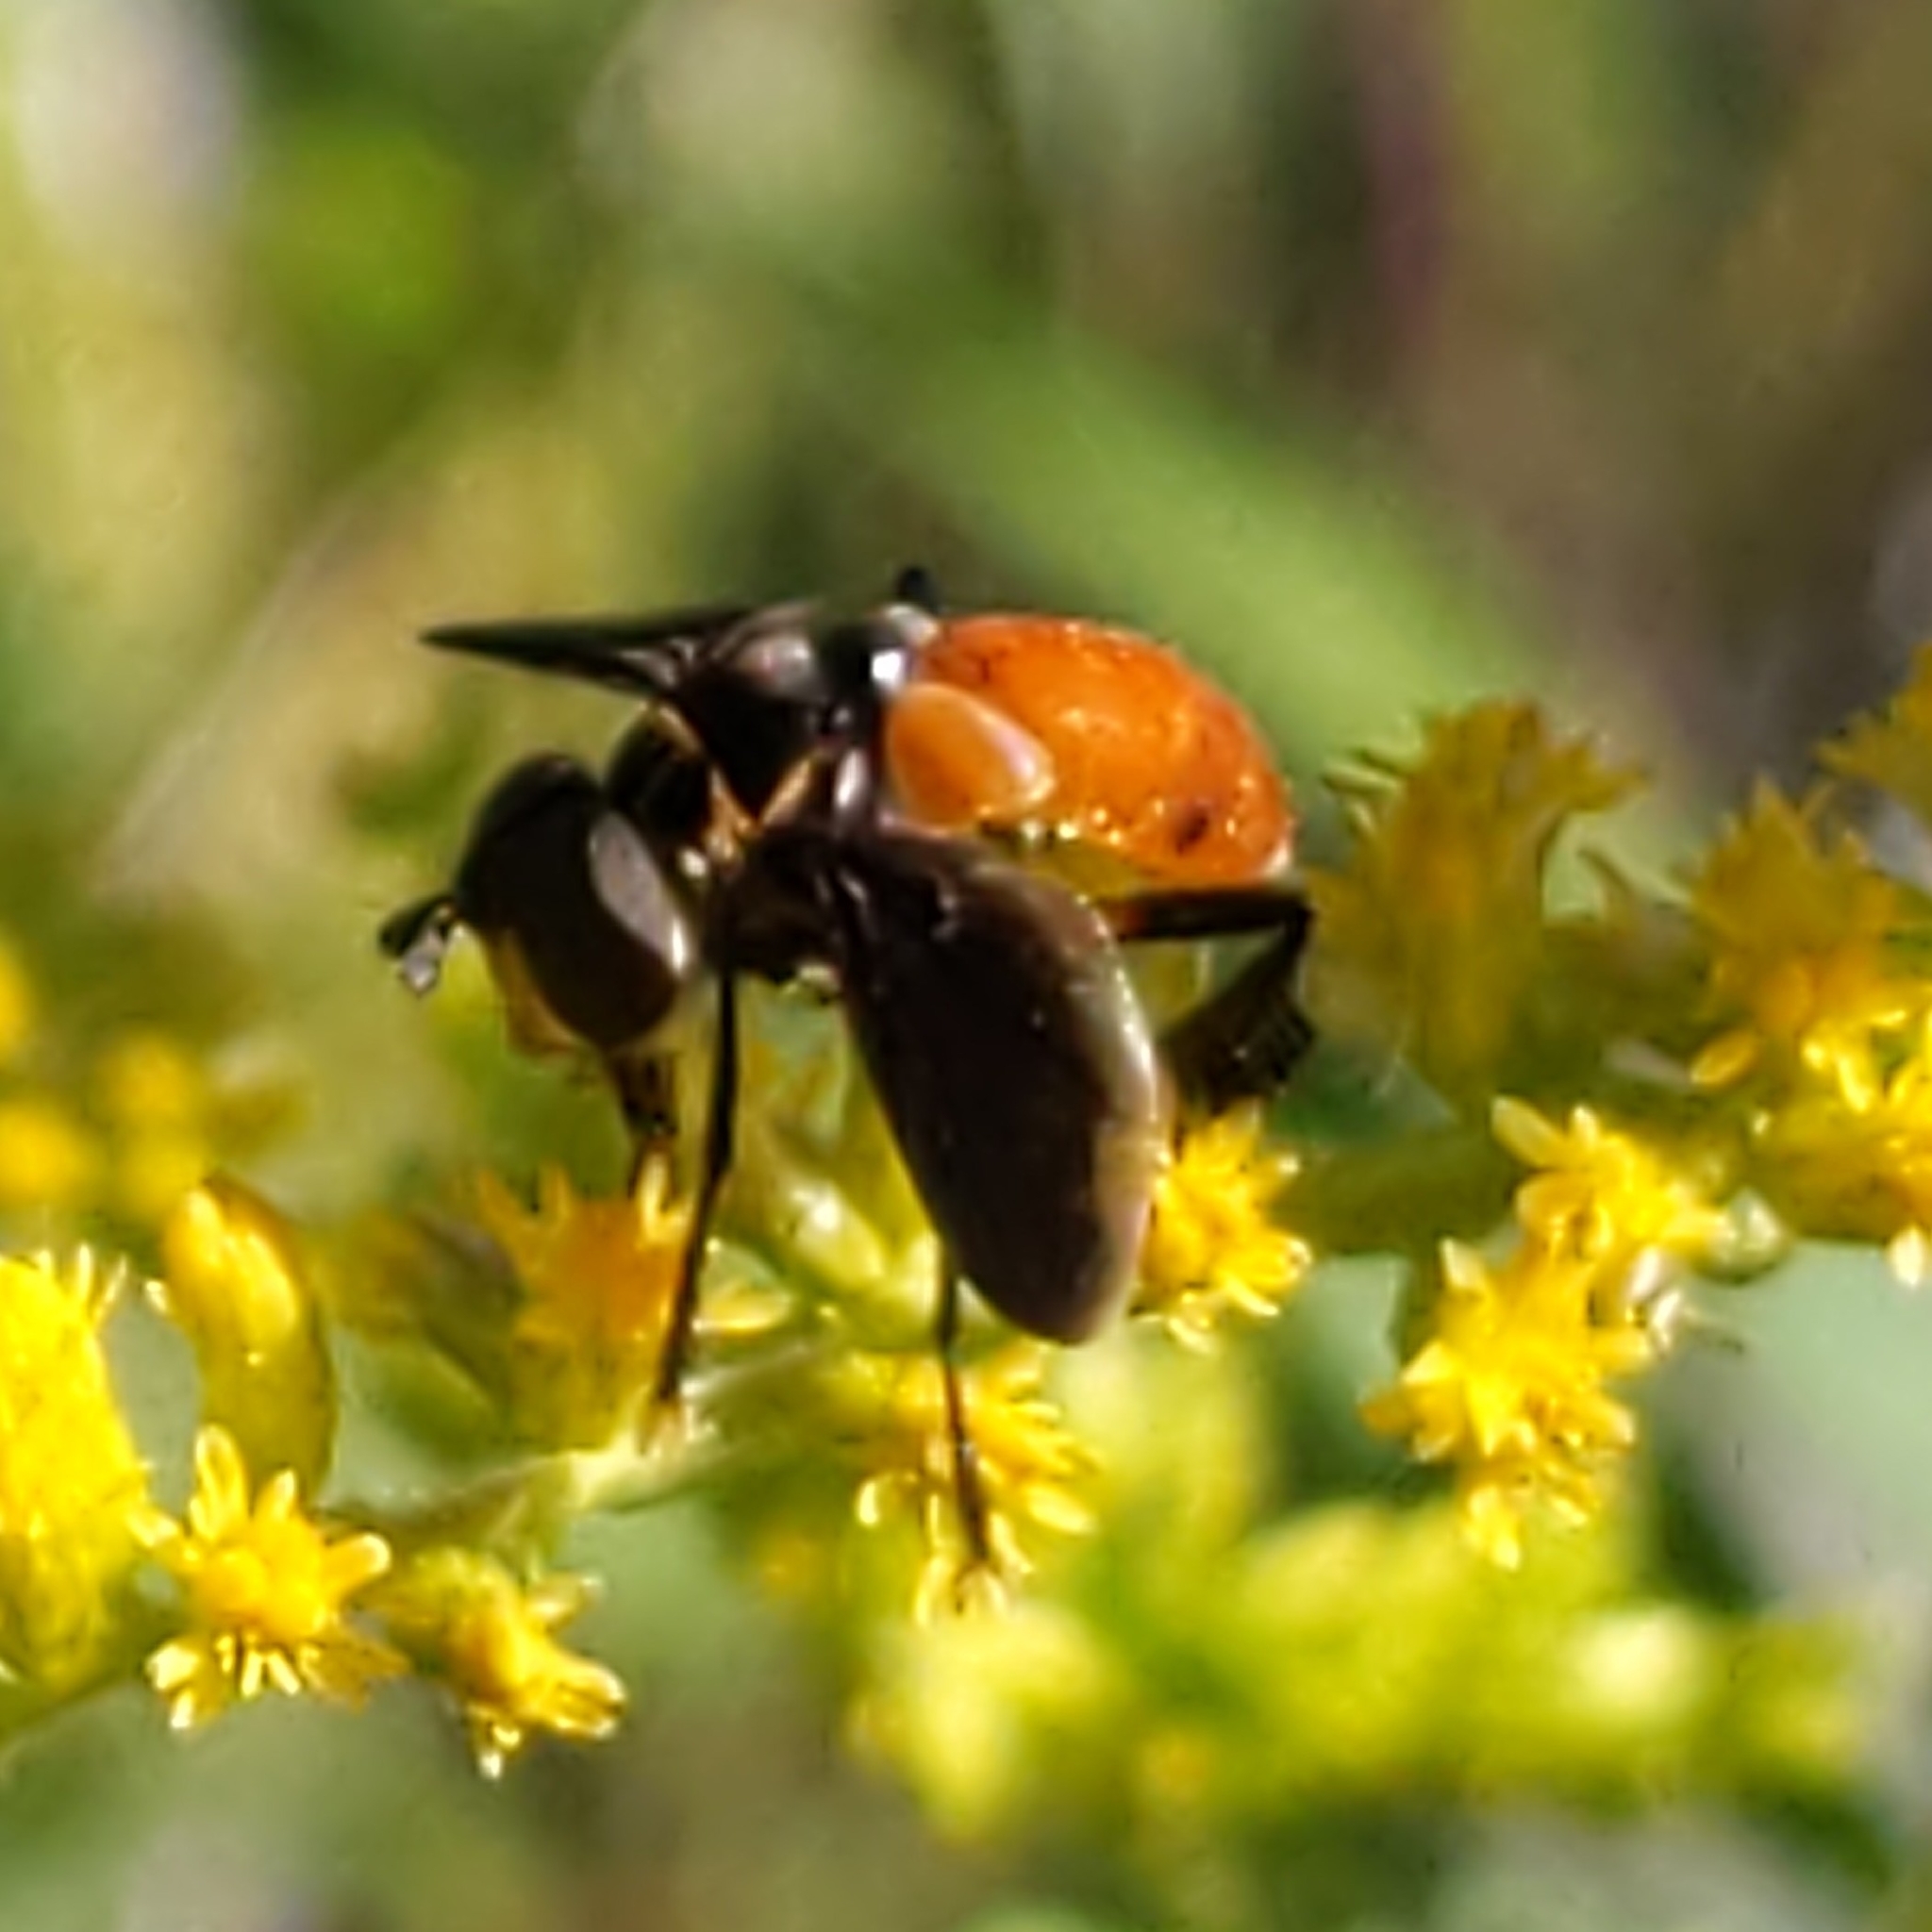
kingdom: Animalia
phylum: Arthropoda
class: Insecta
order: Diptera
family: Tachinidae
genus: Trichopoda
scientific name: Trichopoda pennipes
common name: Tachinid fly
